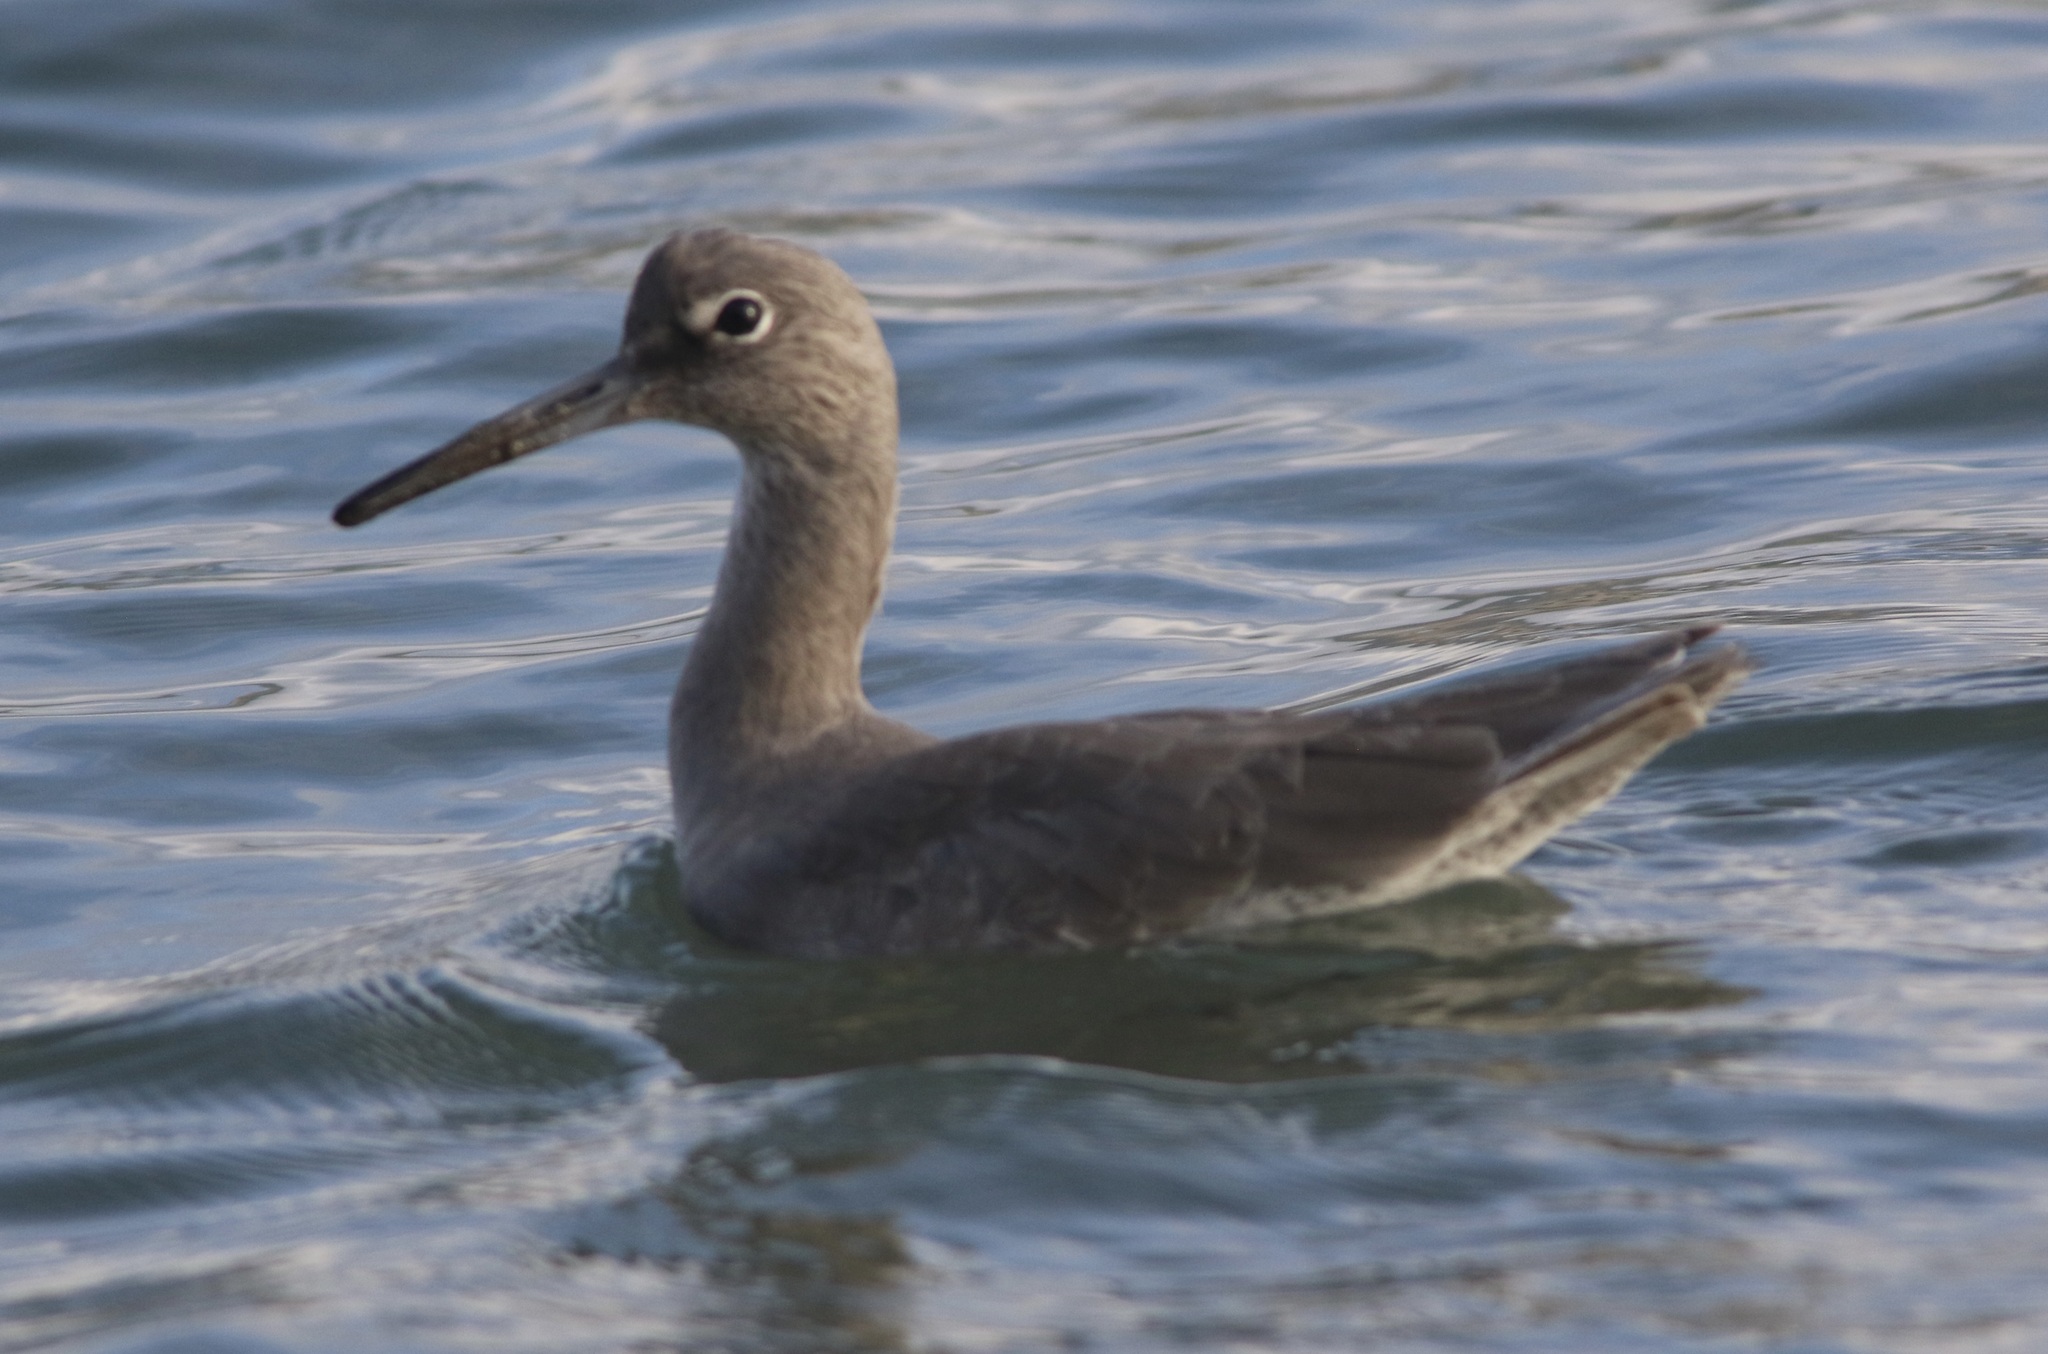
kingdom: Animalia
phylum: Chordata
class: Aves
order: Charadriiformes
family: Scolopacidae
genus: Tringa
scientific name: Tringa semipalmata
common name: Willet
